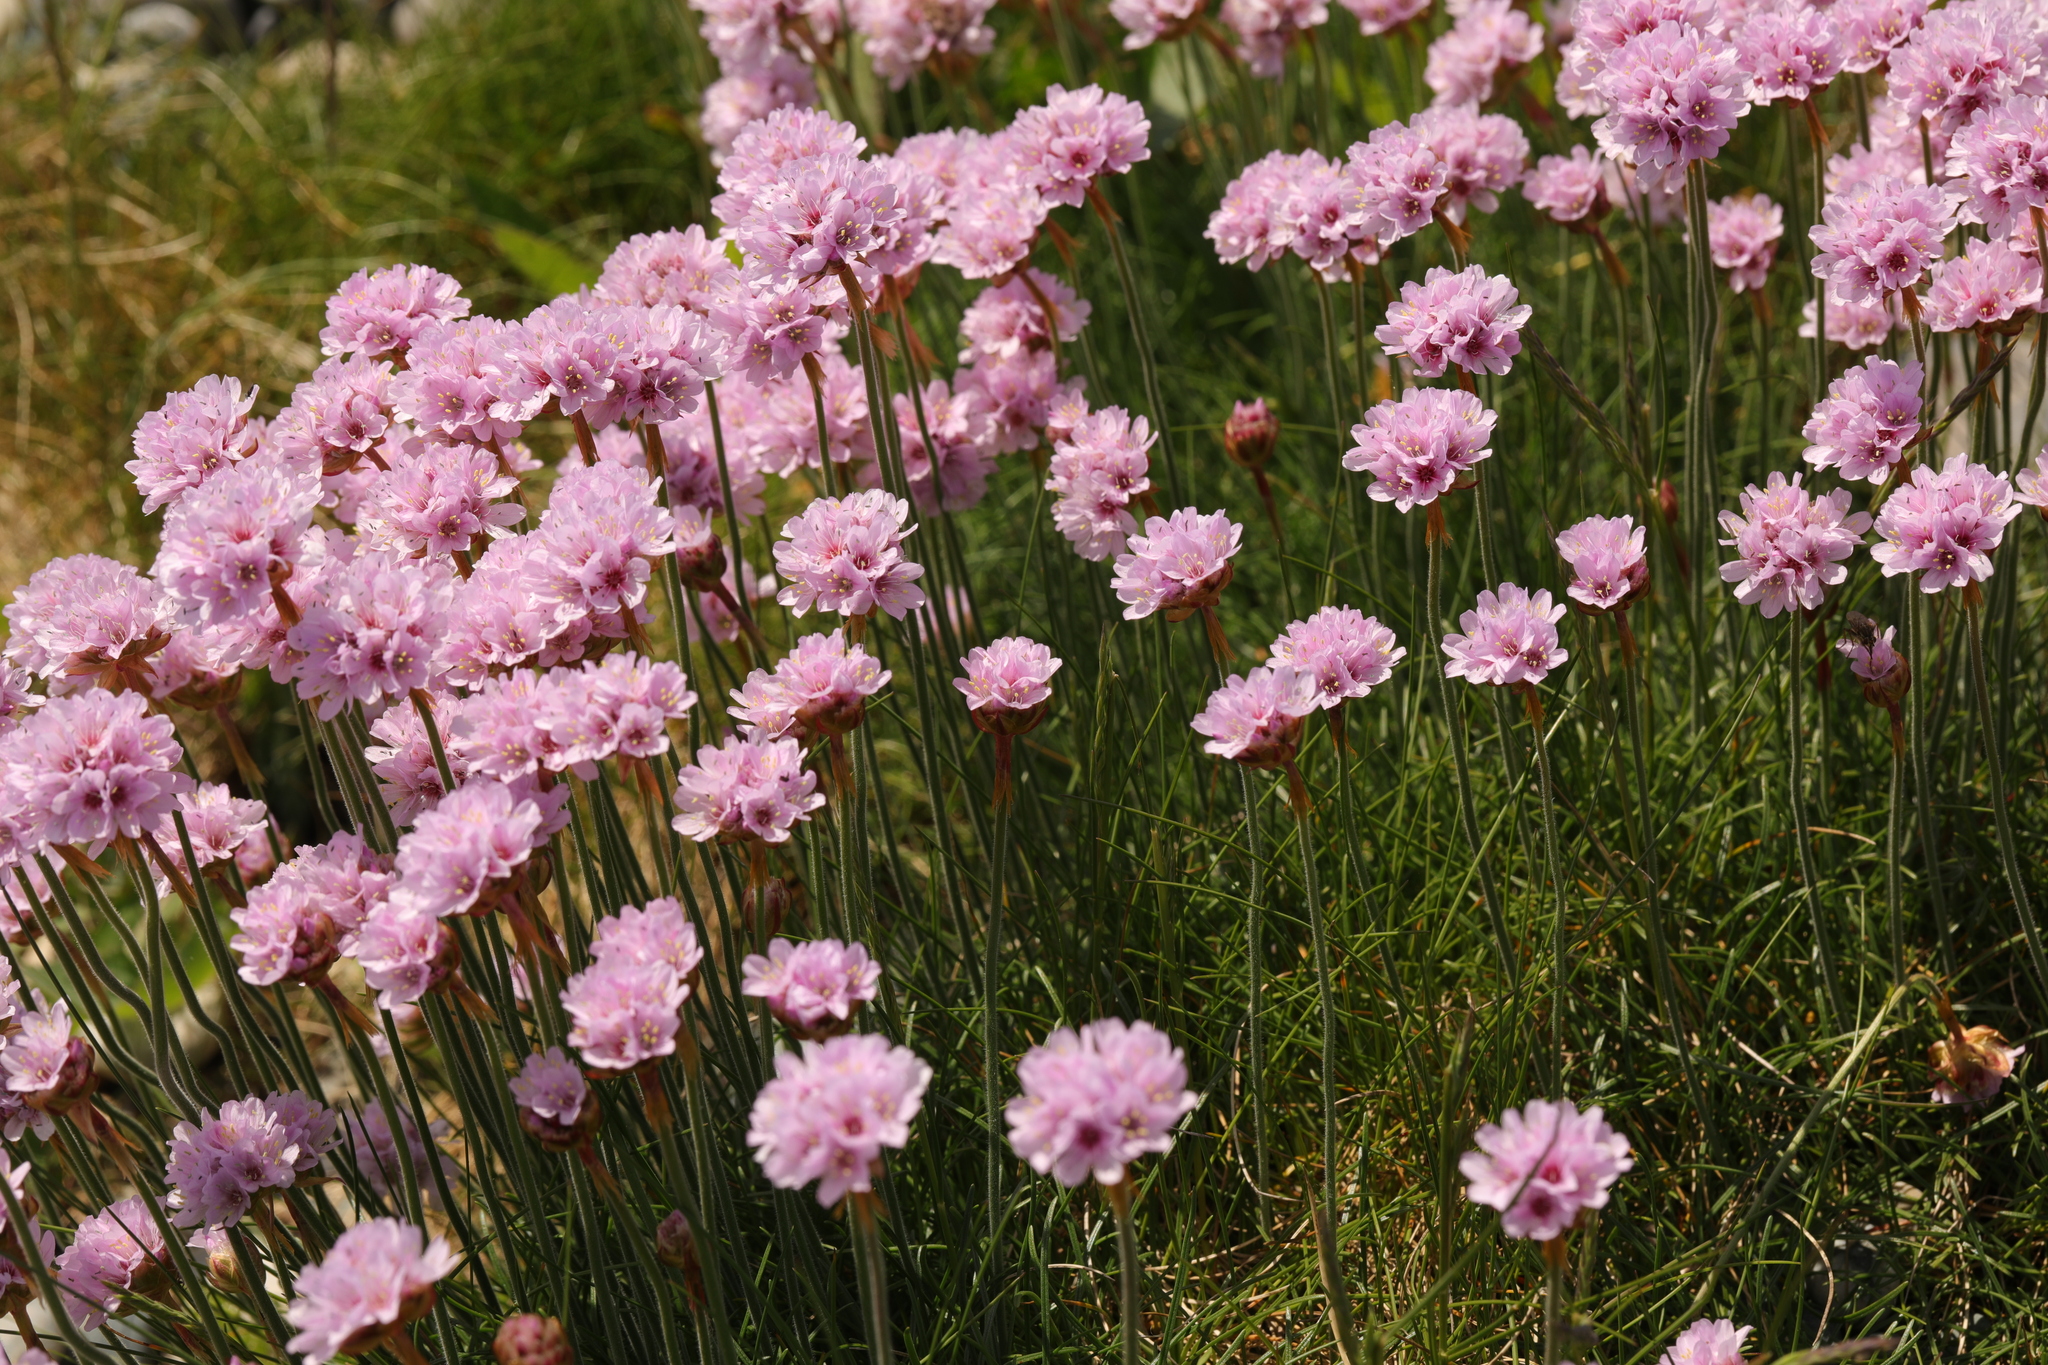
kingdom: Plantae
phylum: Tracheophyta
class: Magnoliopsida
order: Caryophyllales
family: Plumbaginaceae
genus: Armeria
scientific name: Armeria maritima
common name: Thrift
